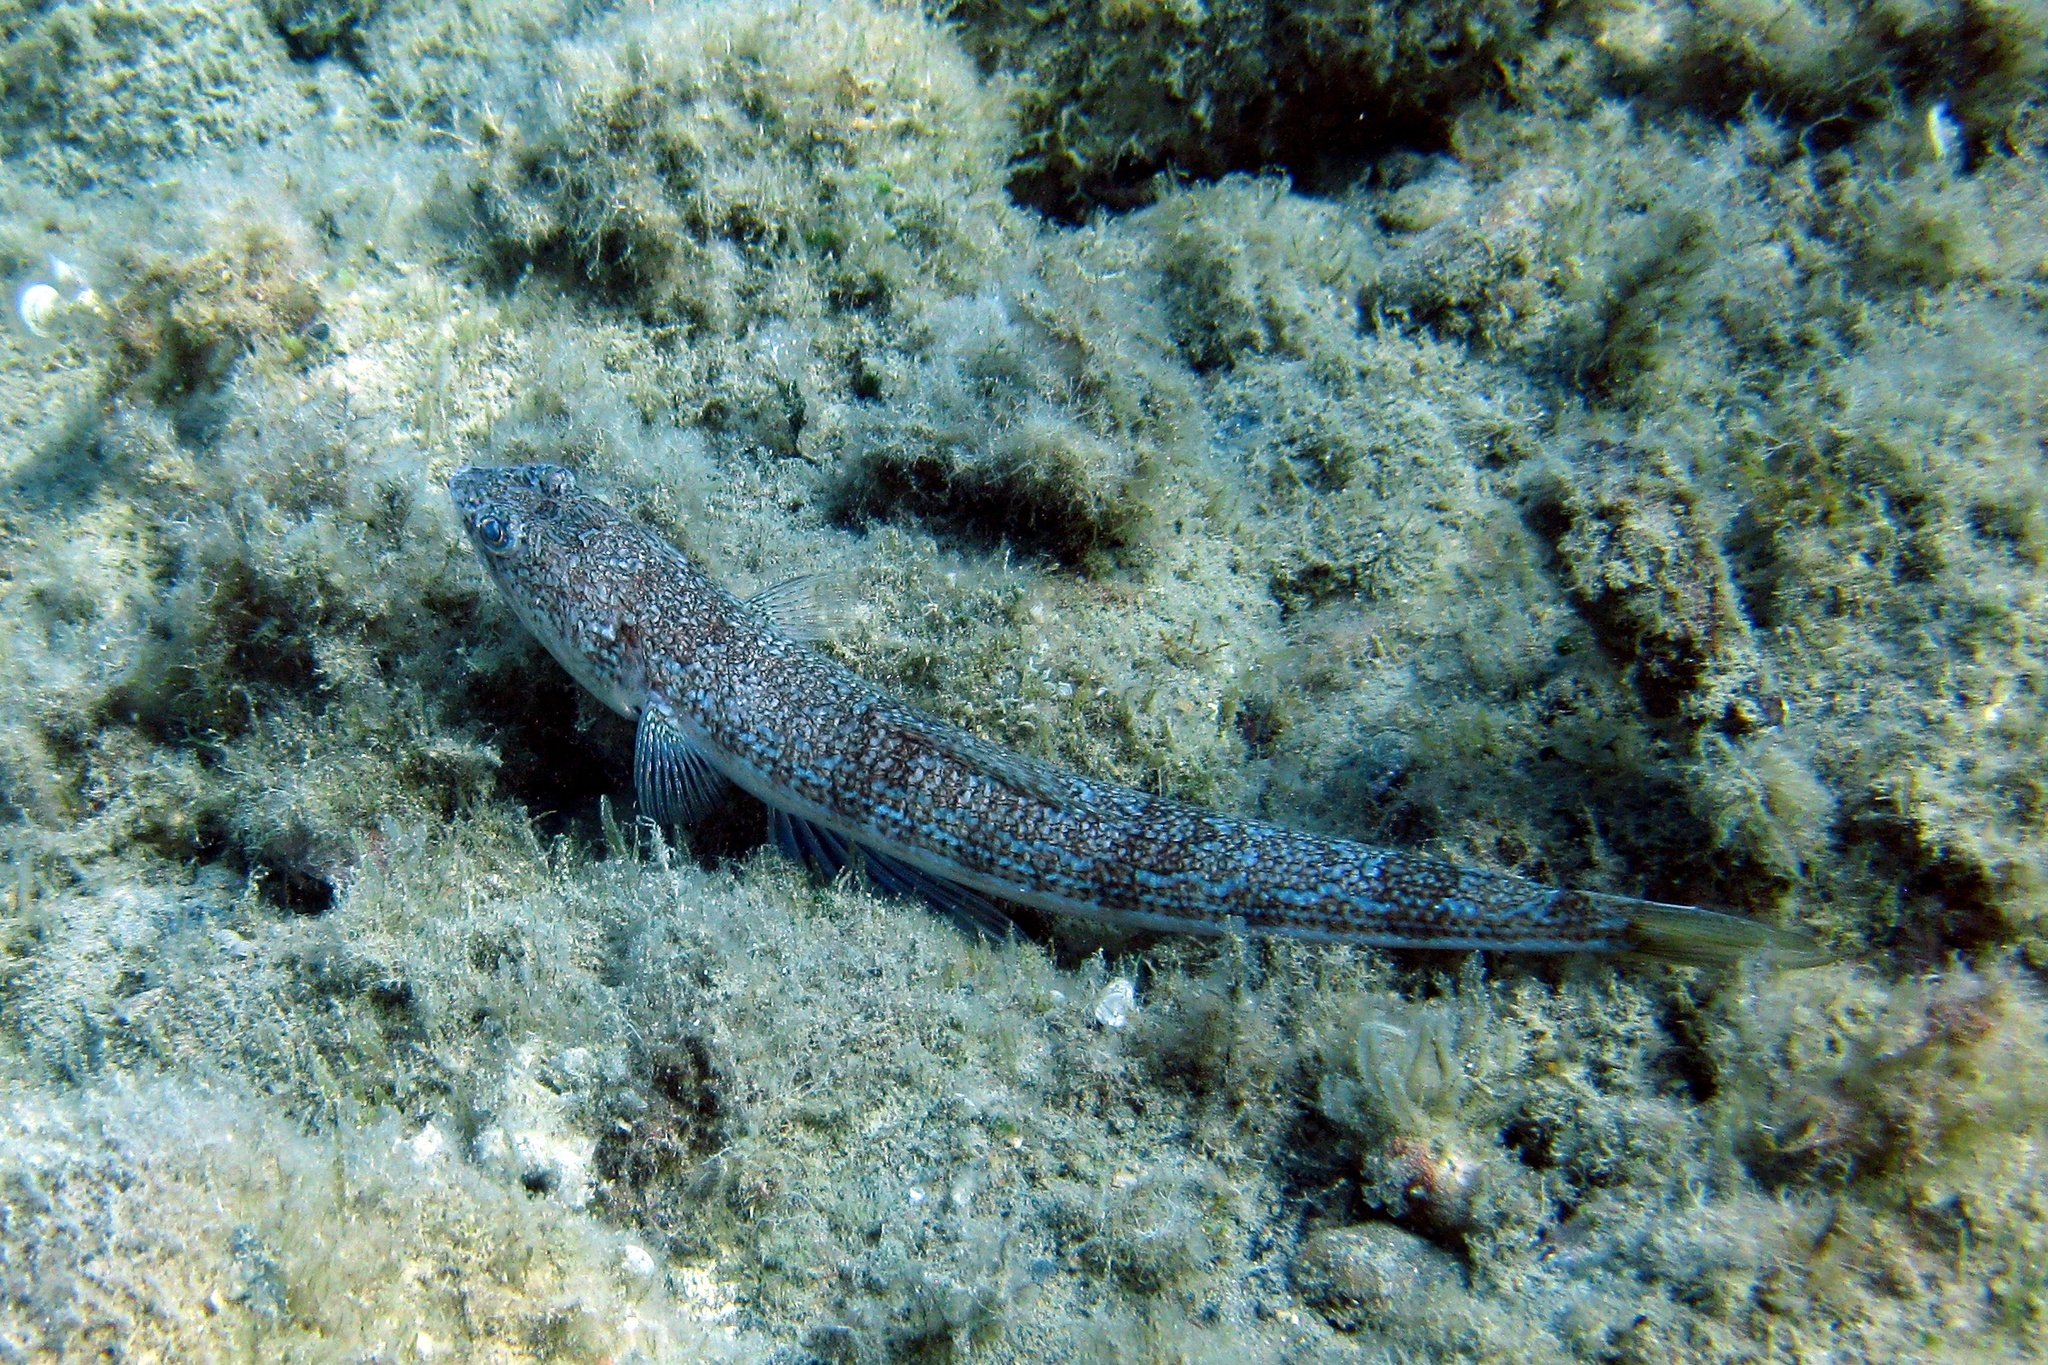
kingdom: Animalia
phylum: Chordata
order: Aulopiformes
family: Synodontidae
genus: Synodus
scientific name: Synodus saurus
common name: Atlantic lizardfish
